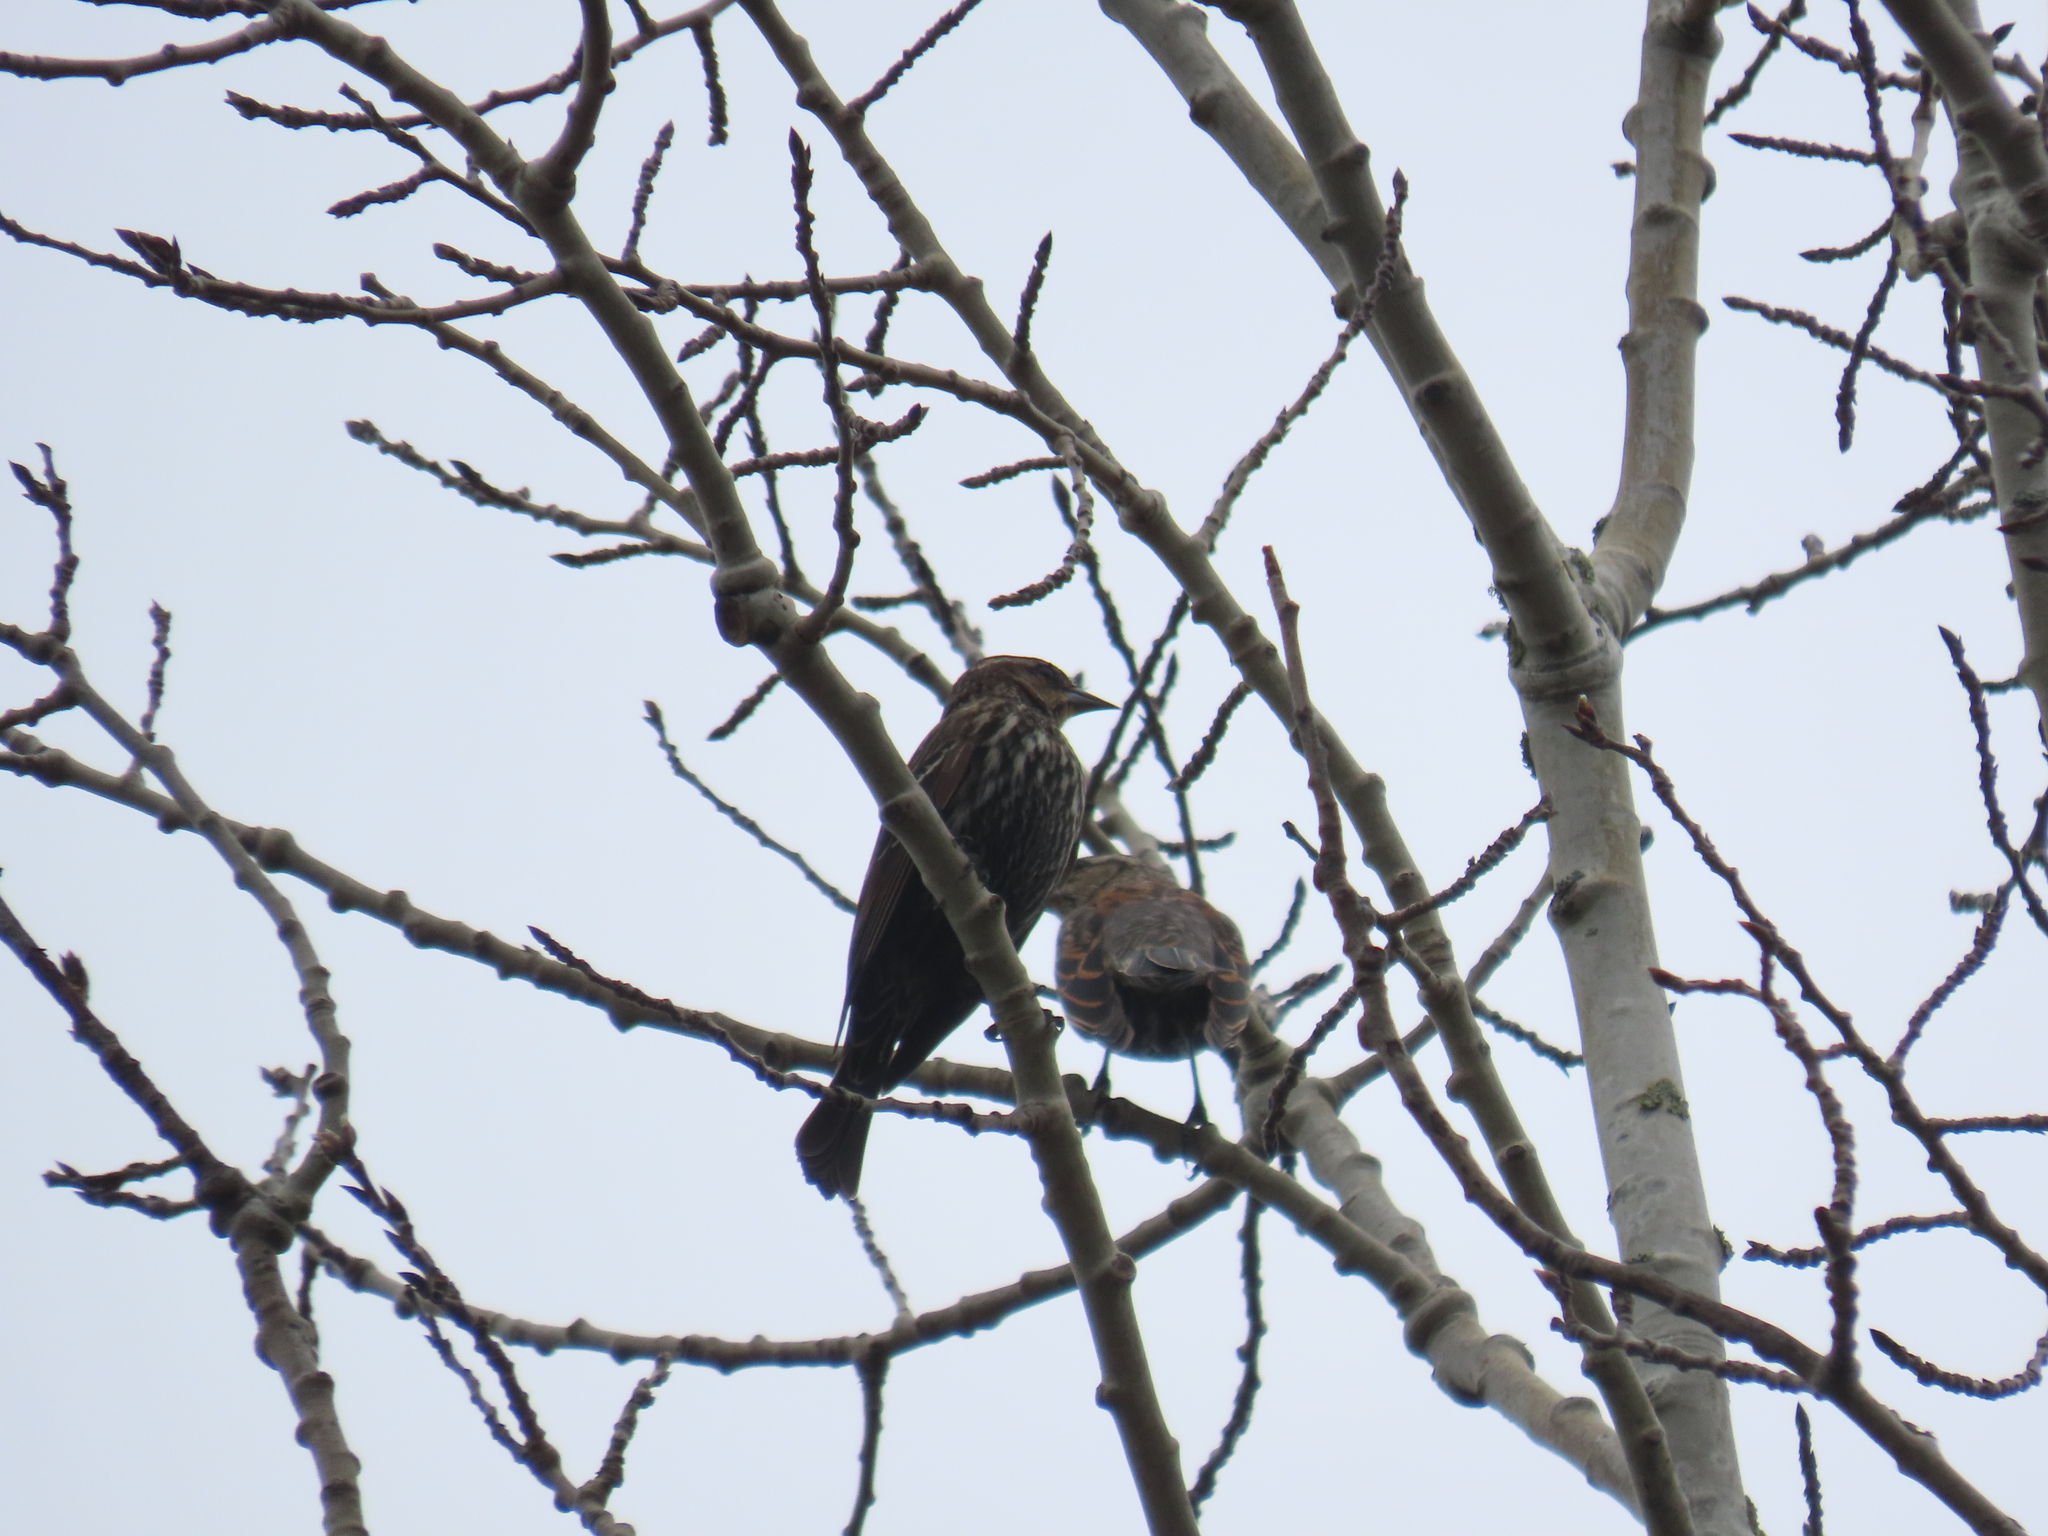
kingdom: Animalia
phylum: Chordata
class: Aves
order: Passeriformes
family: Icteridae
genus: Agelaius
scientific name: Agelaius phoeniceus
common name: Red-winged blackbird
